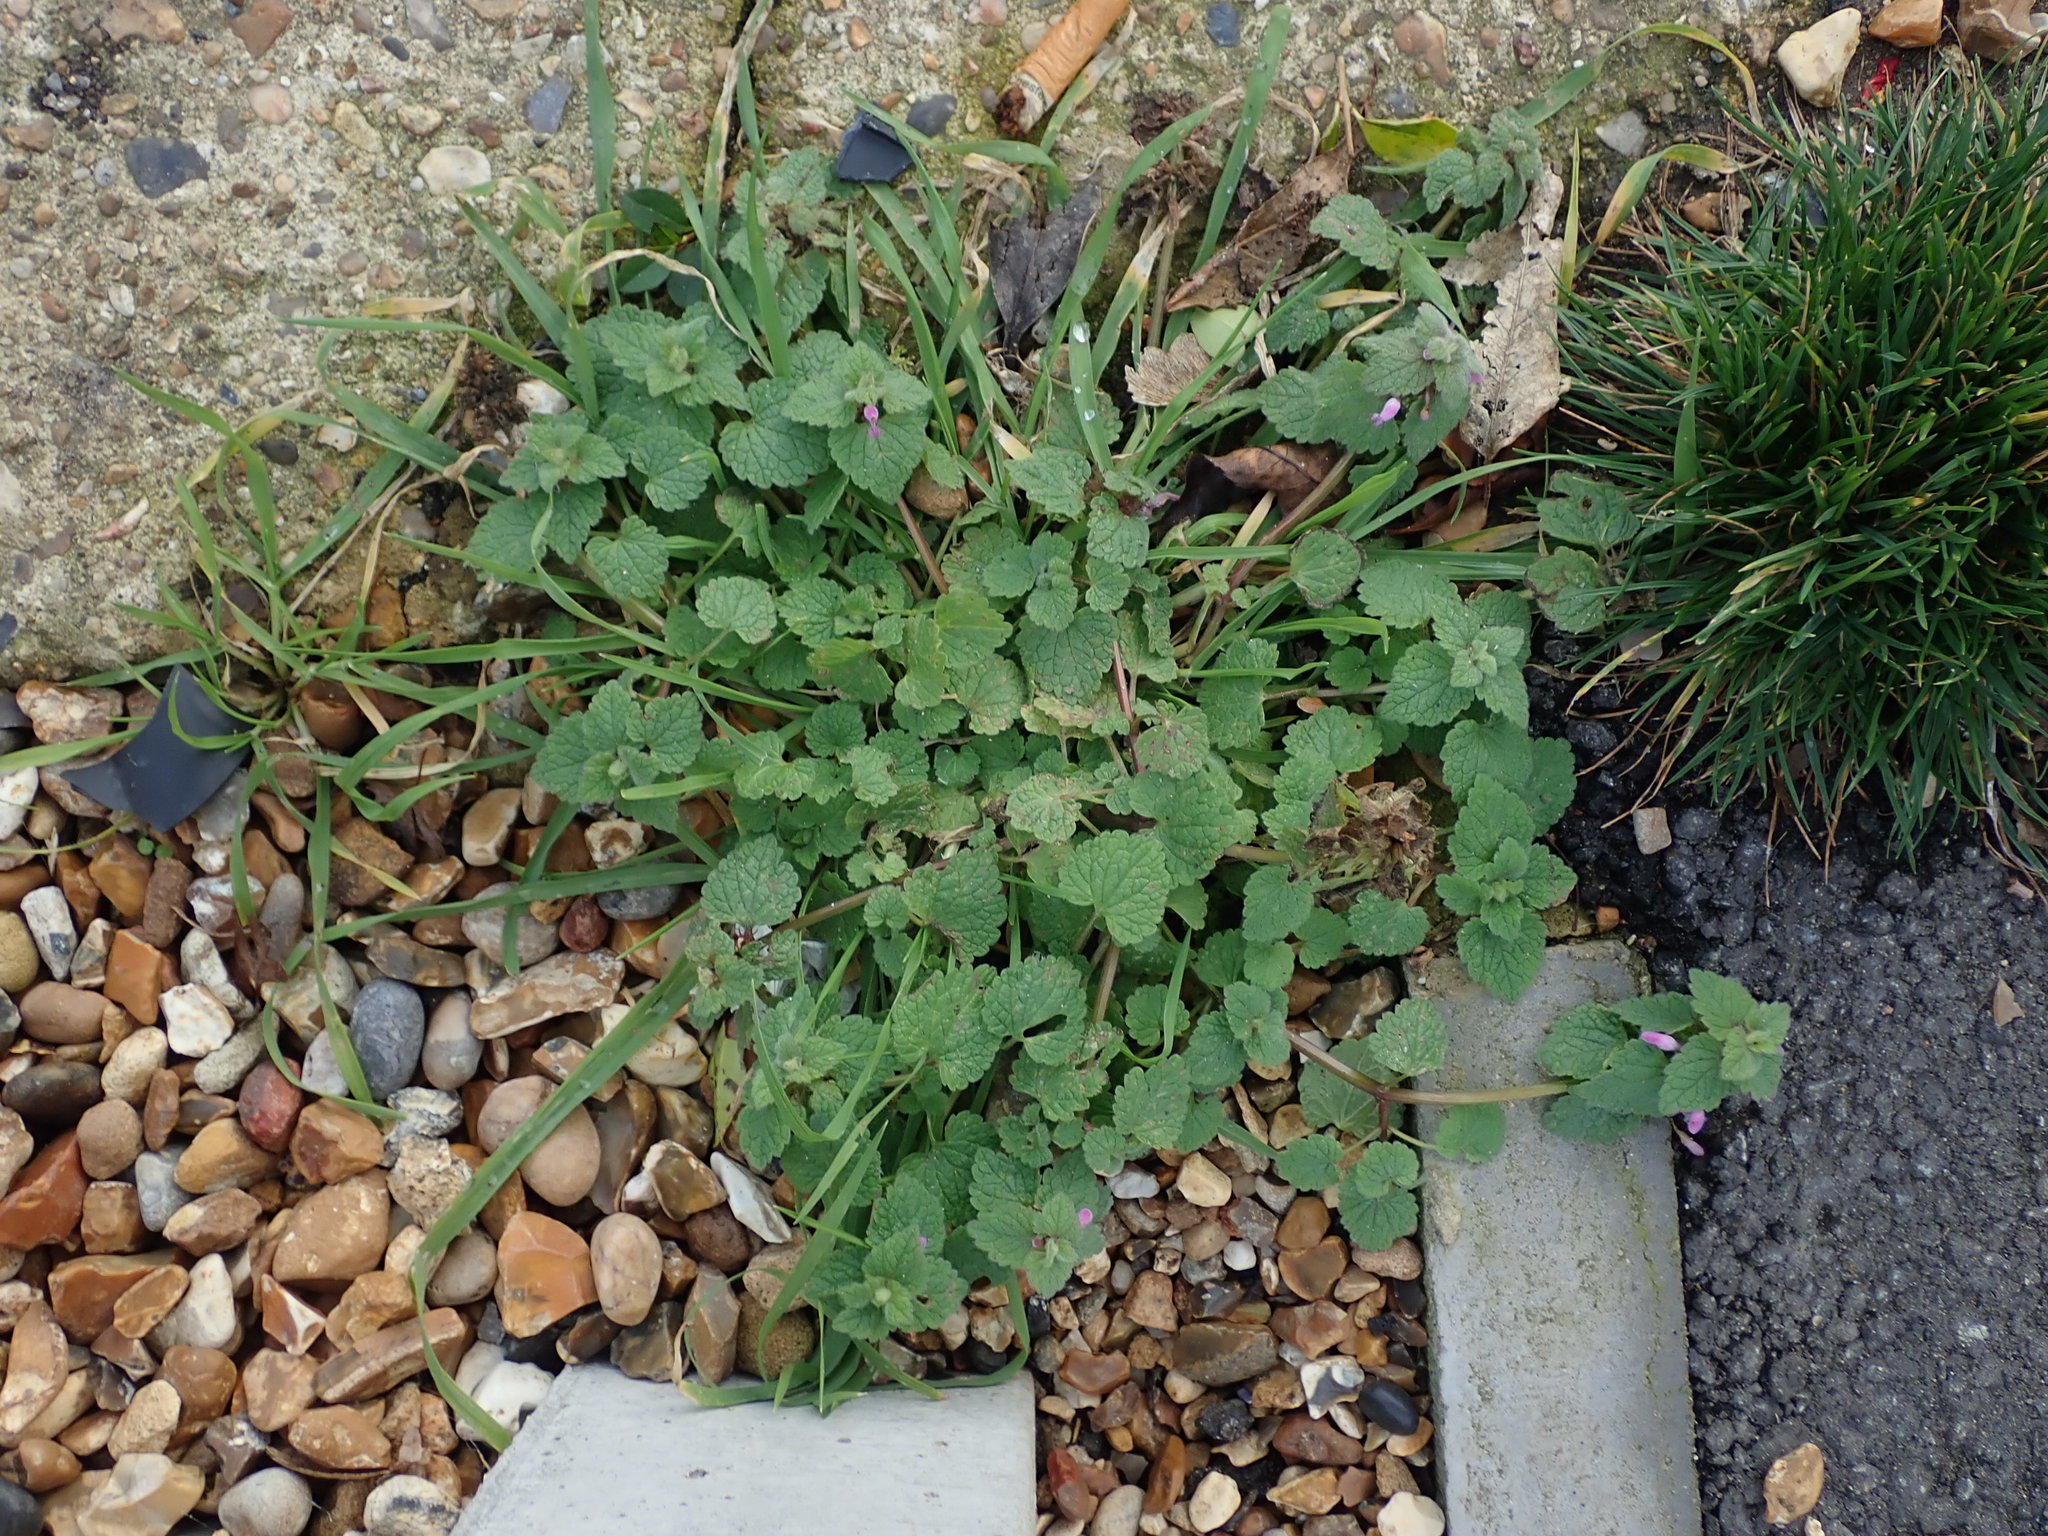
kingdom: Plantae
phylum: Tracheophyta
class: Magnoliopsida
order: Lamiales
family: Lamiaceae
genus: Lamium
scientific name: Lamium purpureum
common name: Red dead-nettle
